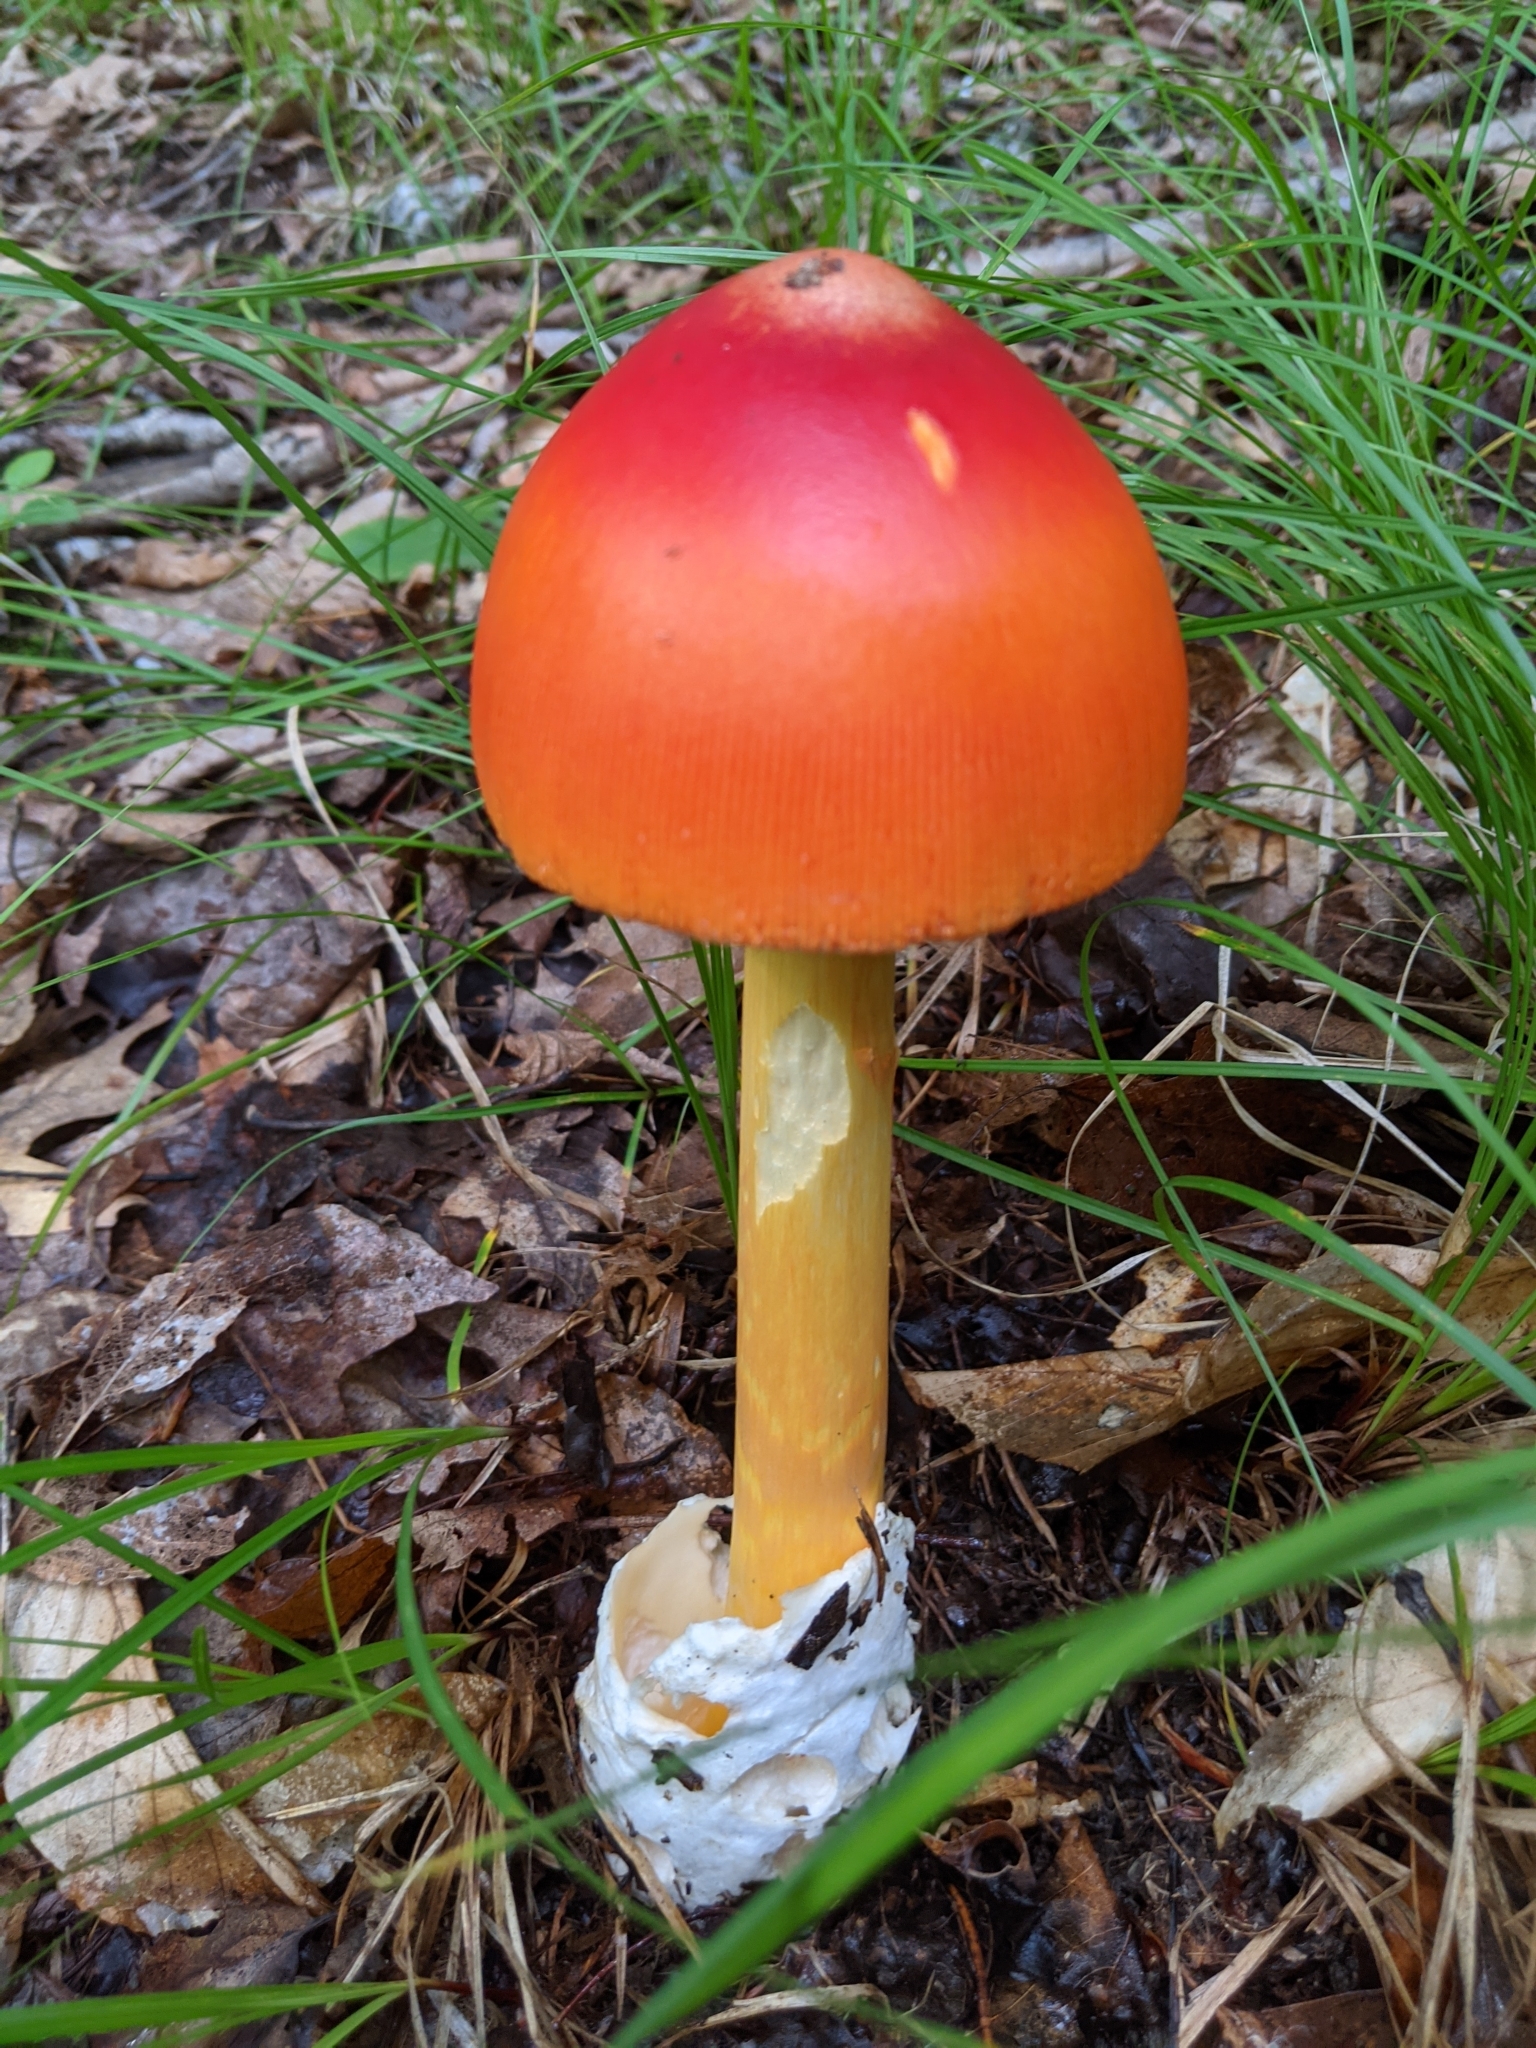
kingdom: Fungi
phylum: Basidiomycota
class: Agaricomycetes
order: Agaricales
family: Amanitaceae
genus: Amanita
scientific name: Amanita jacksonii
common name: Jackson's slender caesar
